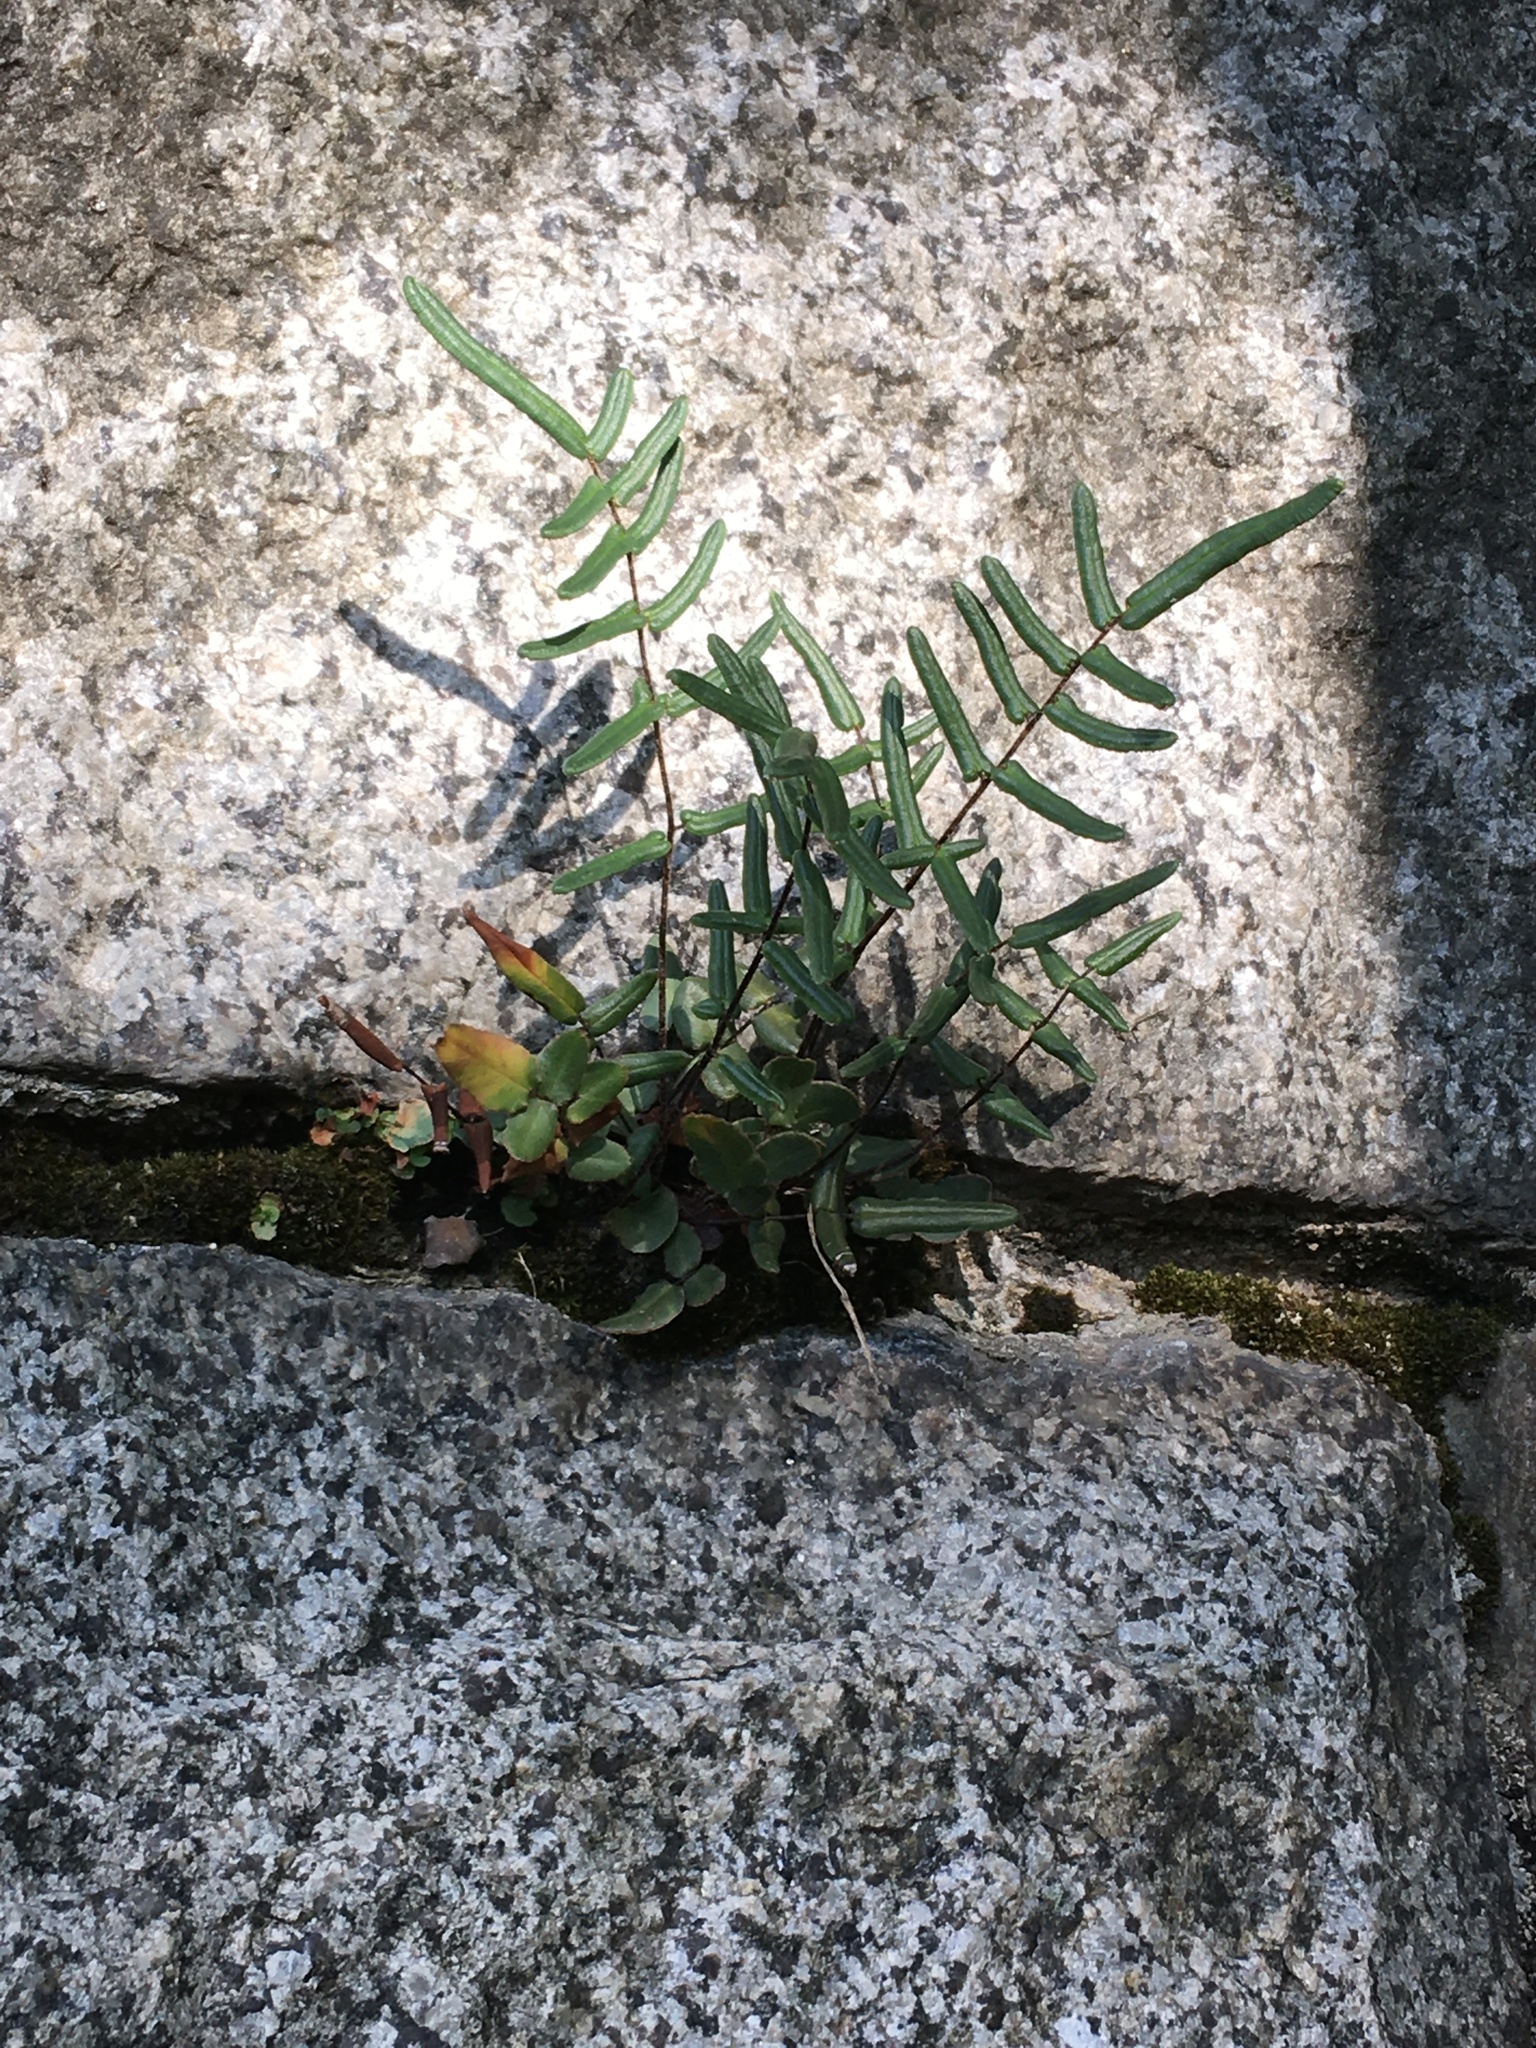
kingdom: Plantae
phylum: Tracheophyta
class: Polypodiopsida
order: Polypodiales
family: Pteridaceae
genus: Pellaea
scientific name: Pellaea atropurpurea
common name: Hairy cliffbrake
